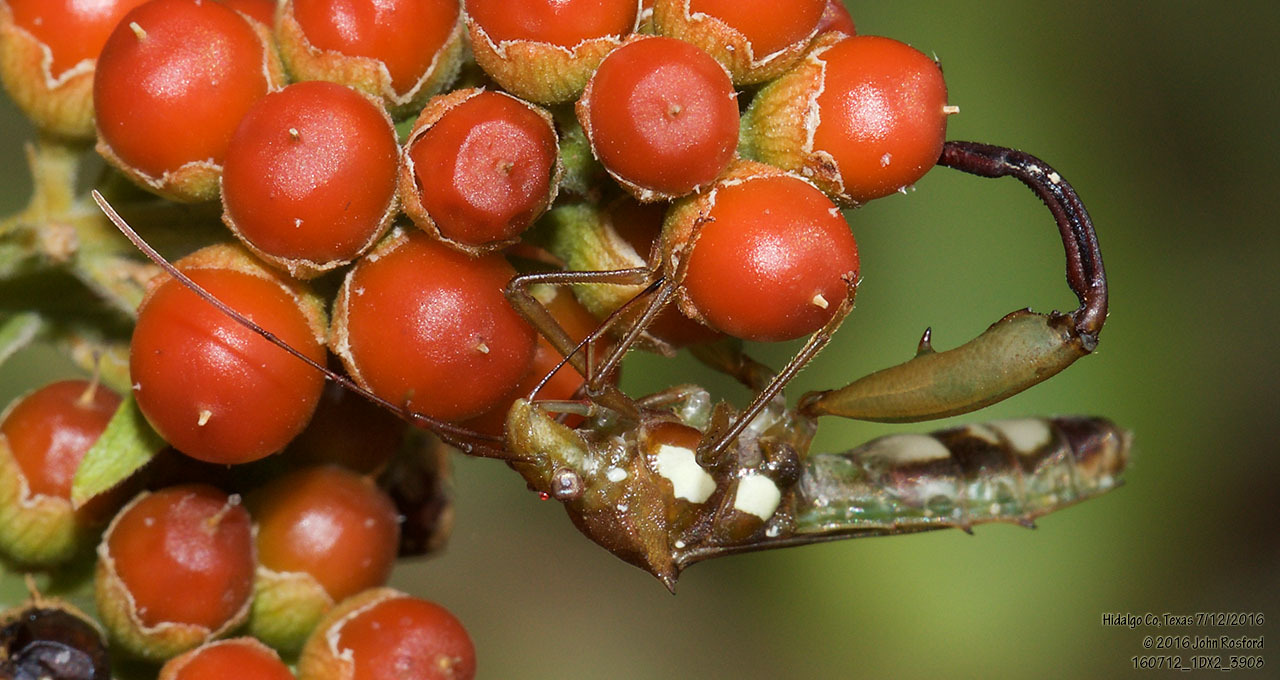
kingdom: Animalia
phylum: Arthropoda
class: Insecta
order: Hemiptera
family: Alydidae
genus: Hyalymenus
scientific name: Hyalymenus tarsatus
